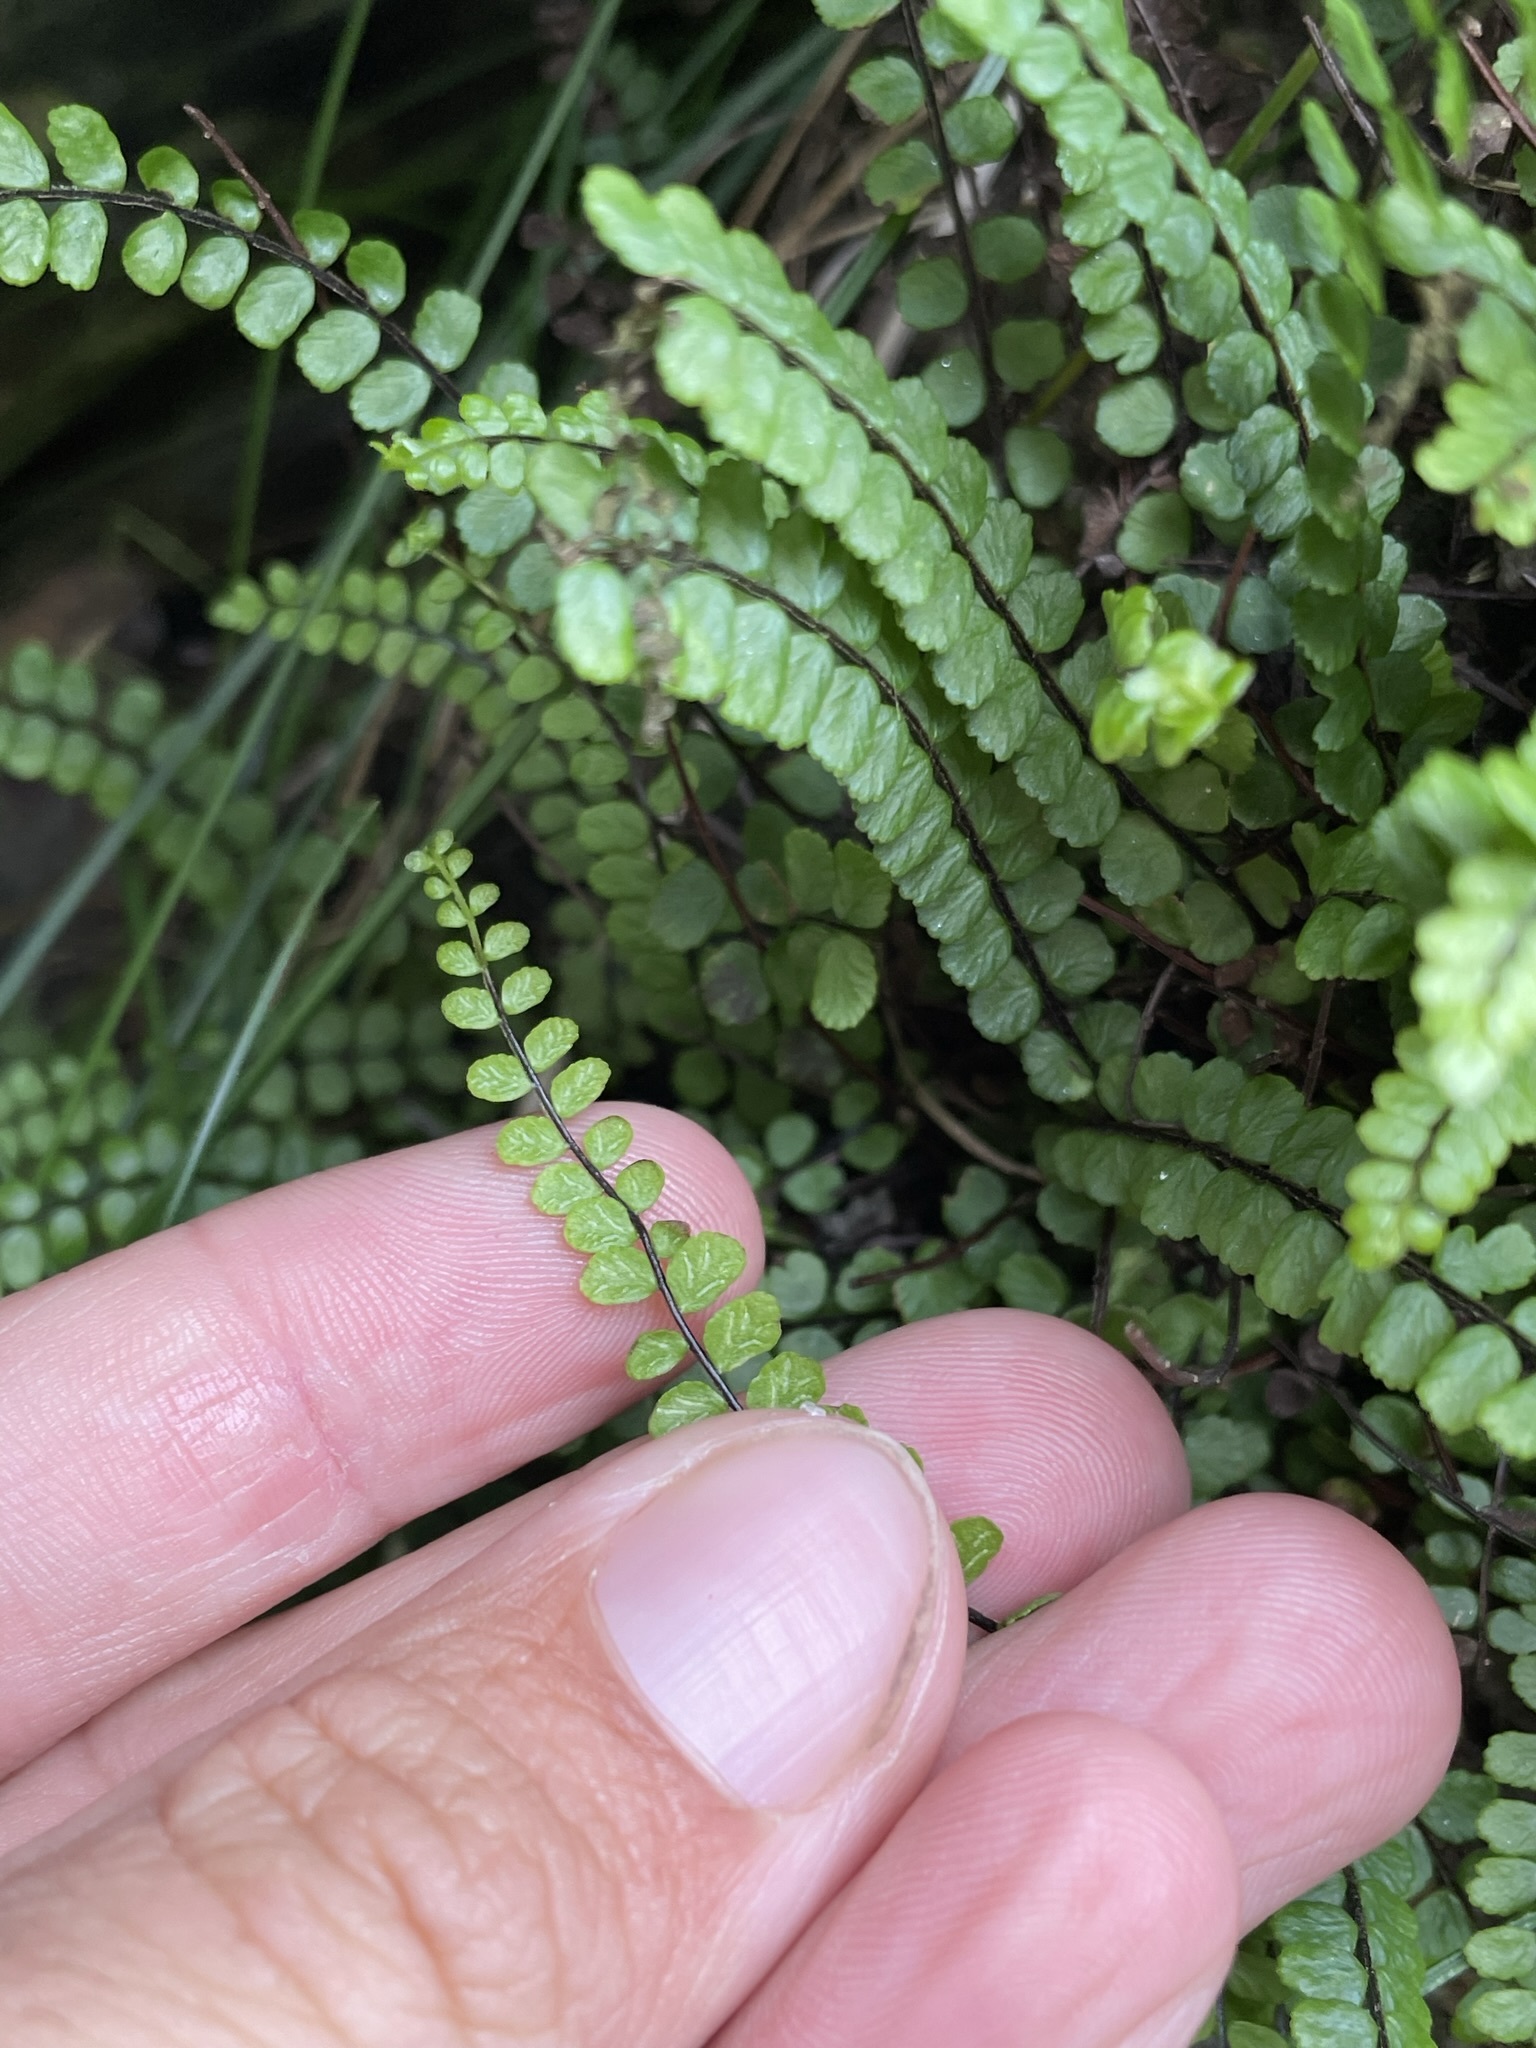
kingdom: Plantae
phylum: Tracheophyta
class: Polypodiopsida
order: Polypodiales
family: Aspleniaceae
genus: Asplenium
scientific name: Asplenium trichomanes
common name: Maidenhair spleenwort
